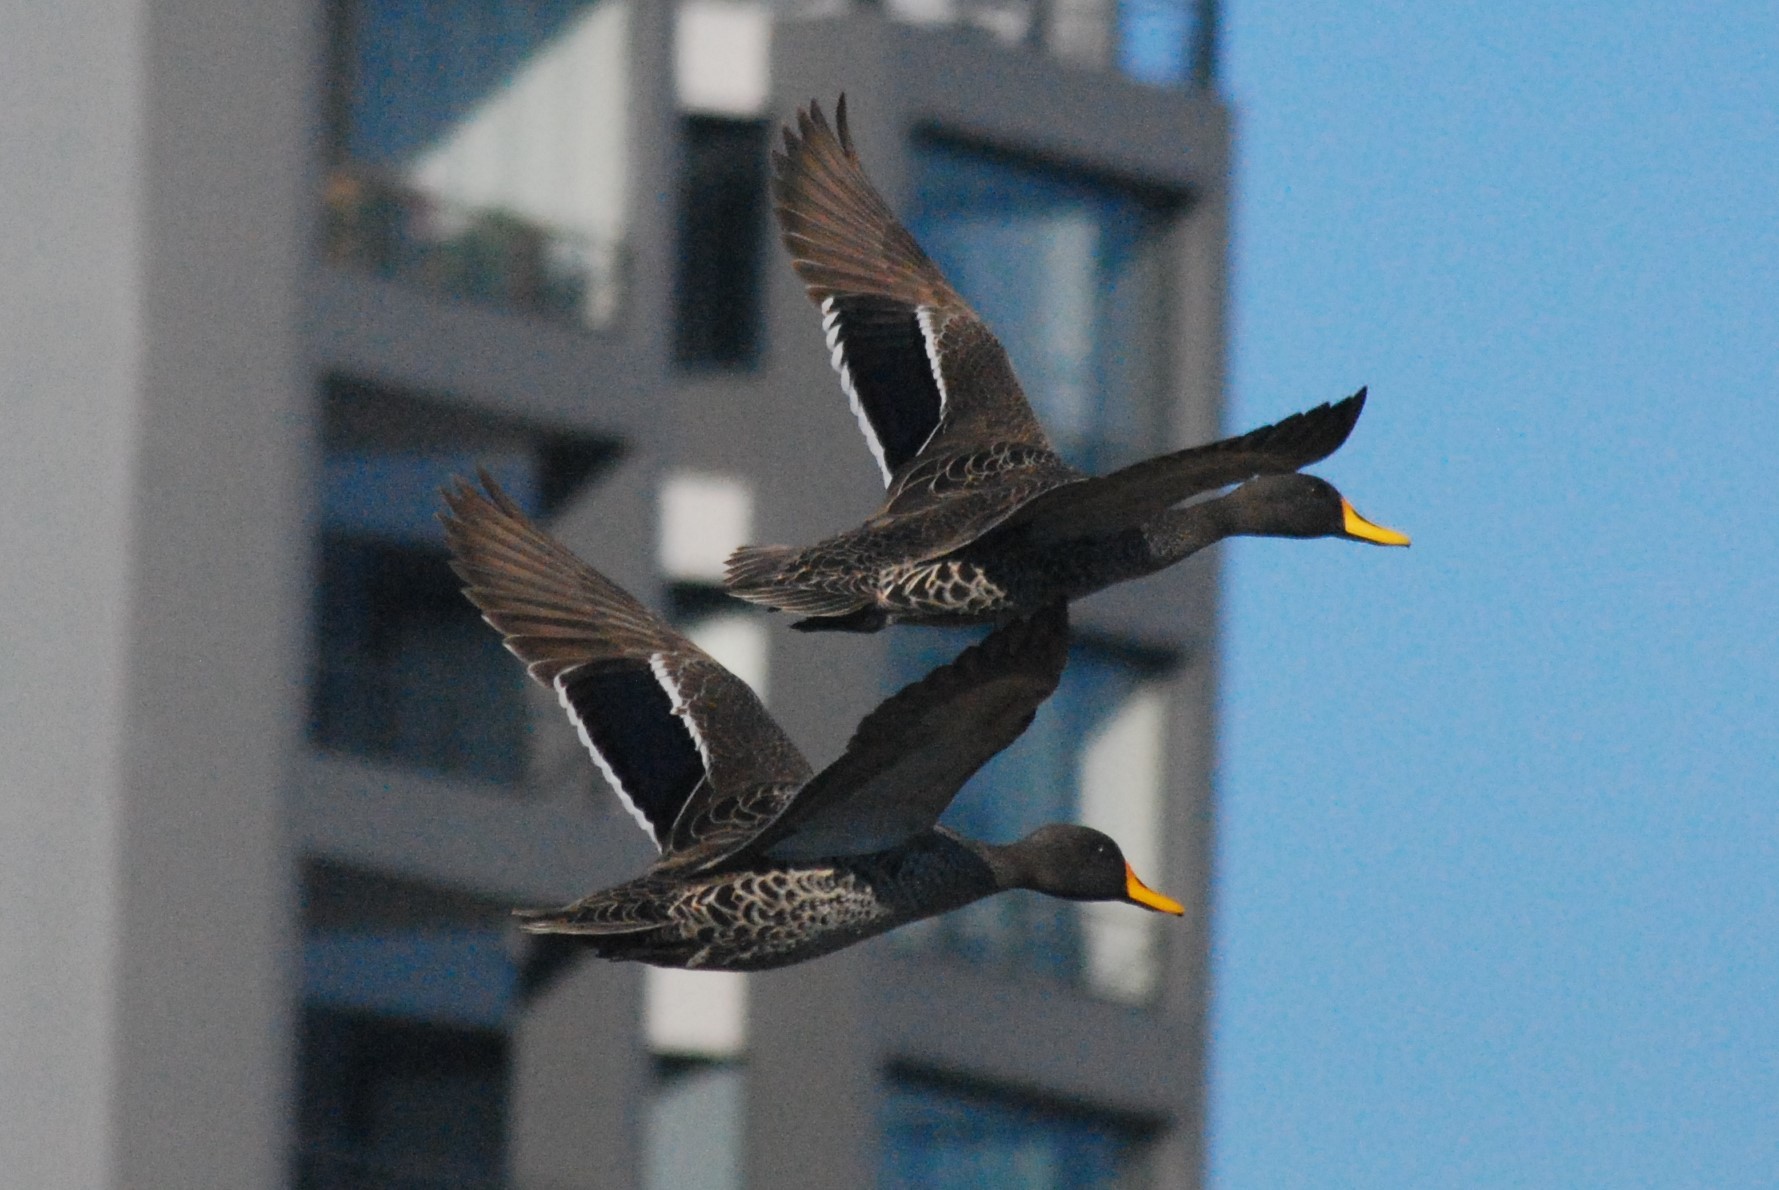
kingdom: Animalia
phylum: Chordata
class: Aves
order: Anseriformes
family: Anatidae
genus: Anas
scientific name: Anas undulata
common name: Yellow-billed duck
